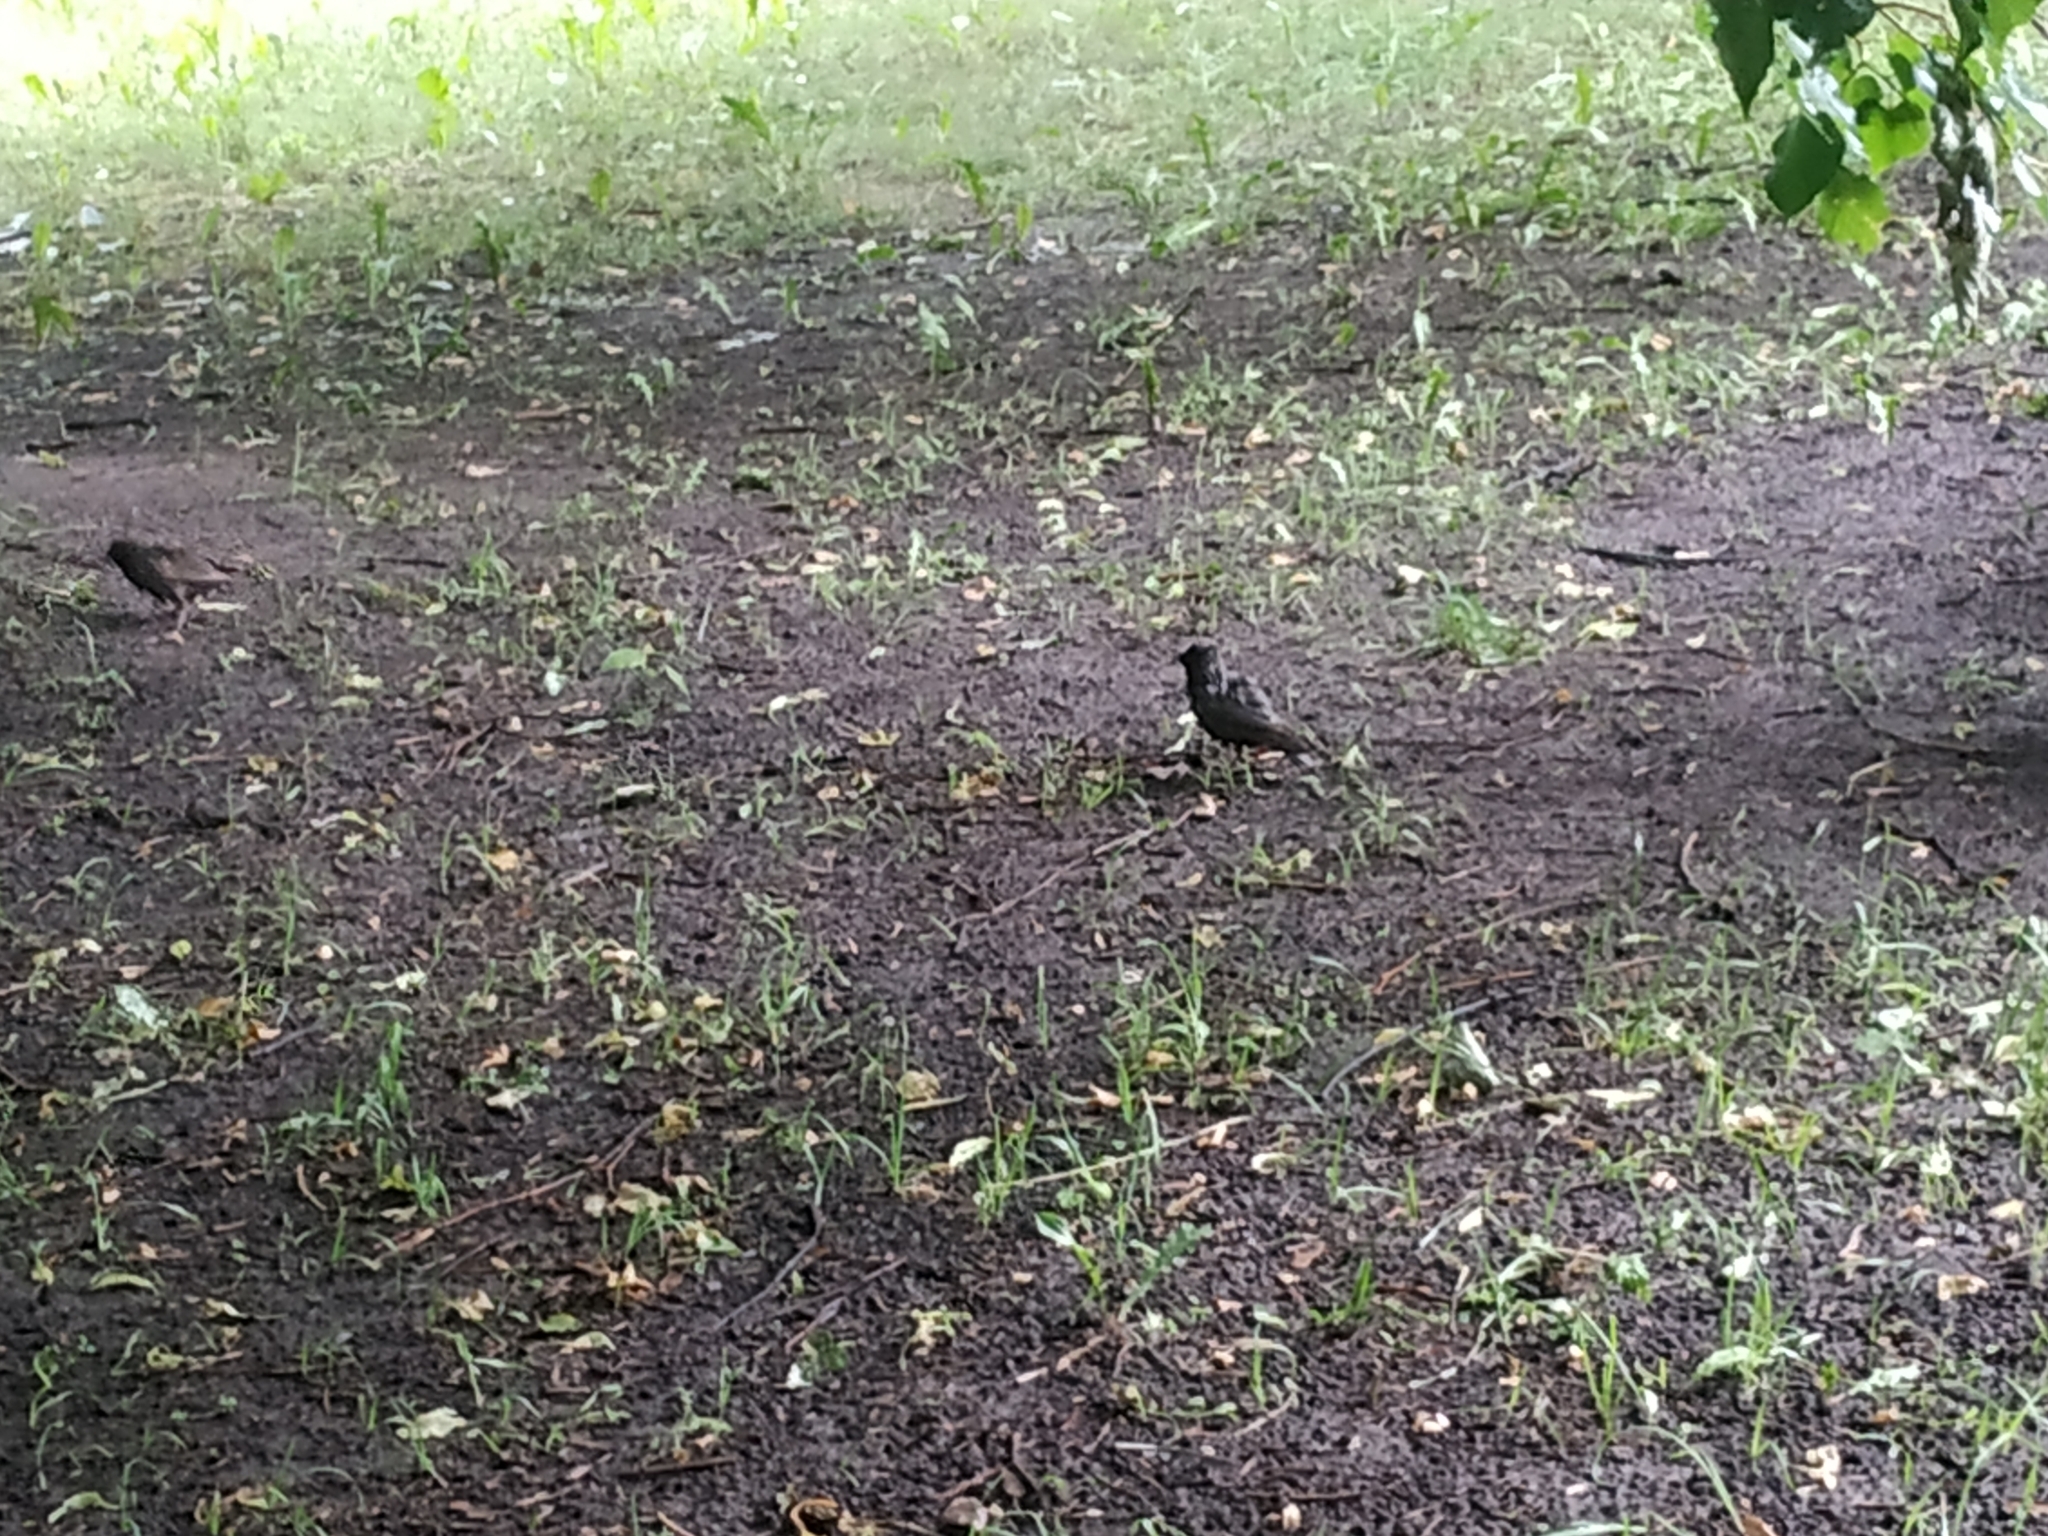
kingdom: Animalia
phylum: Chordata
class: Aves
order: Passeriformes
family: Sturnidae
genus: Sturnus
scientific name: Sturnus vulgaris
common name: Common starling
